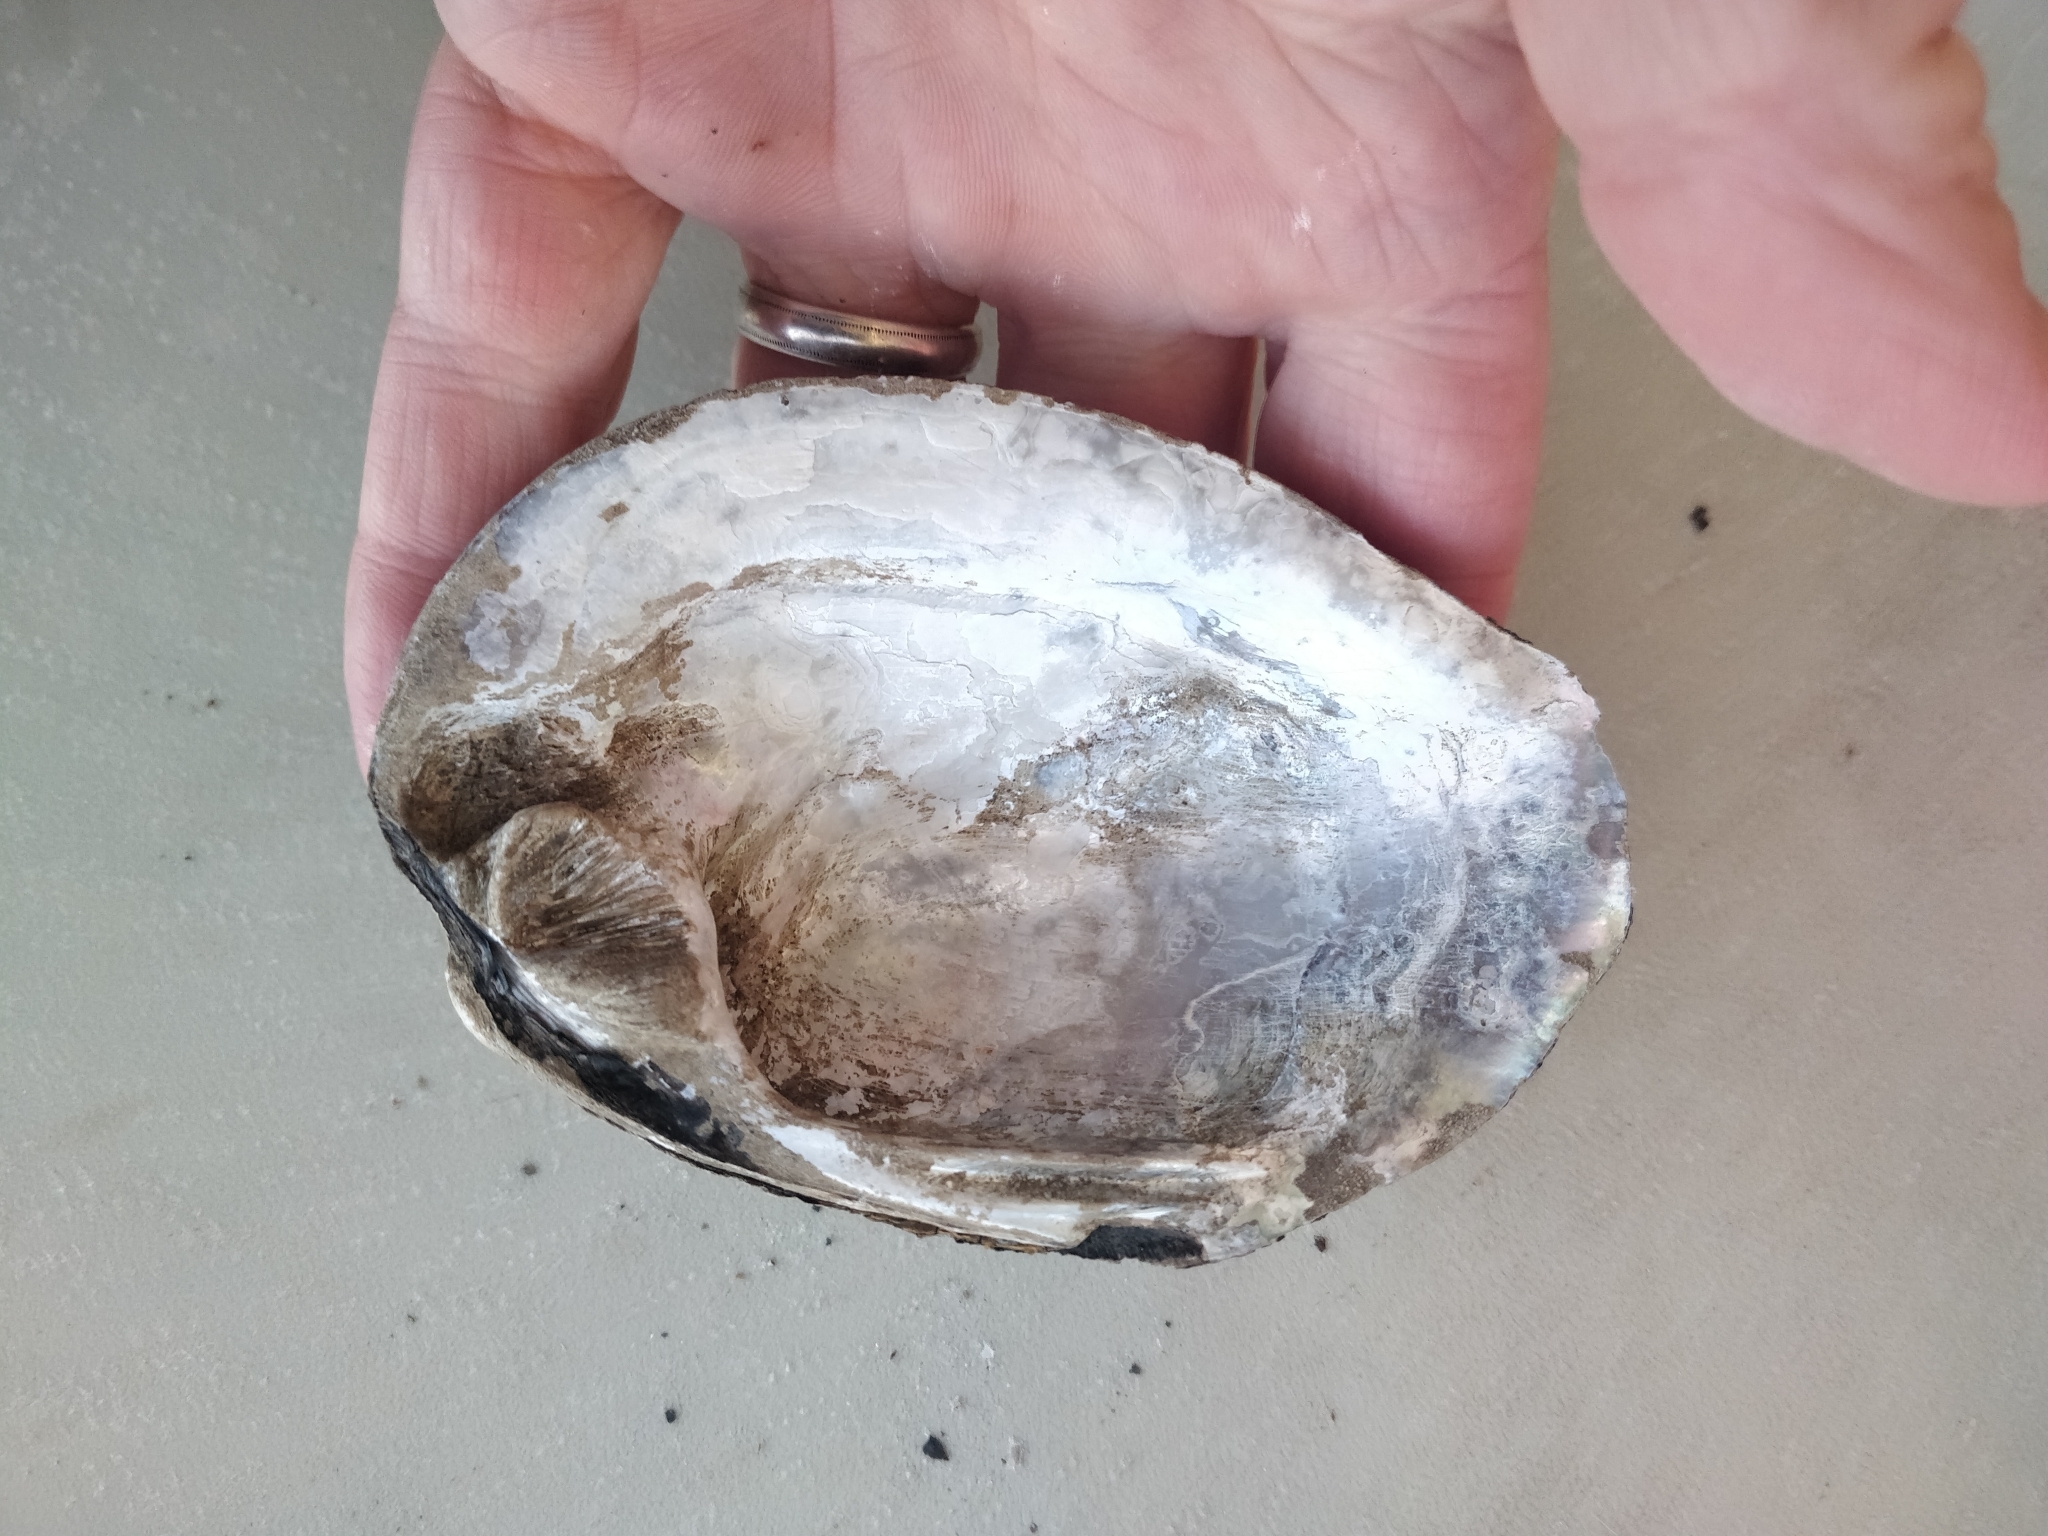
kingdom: Animalia
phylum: Mollusca
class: Bivalvia
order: Unionida
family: Unionidae
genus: Amblema
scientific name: Amblema plicata
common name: Threeridge
